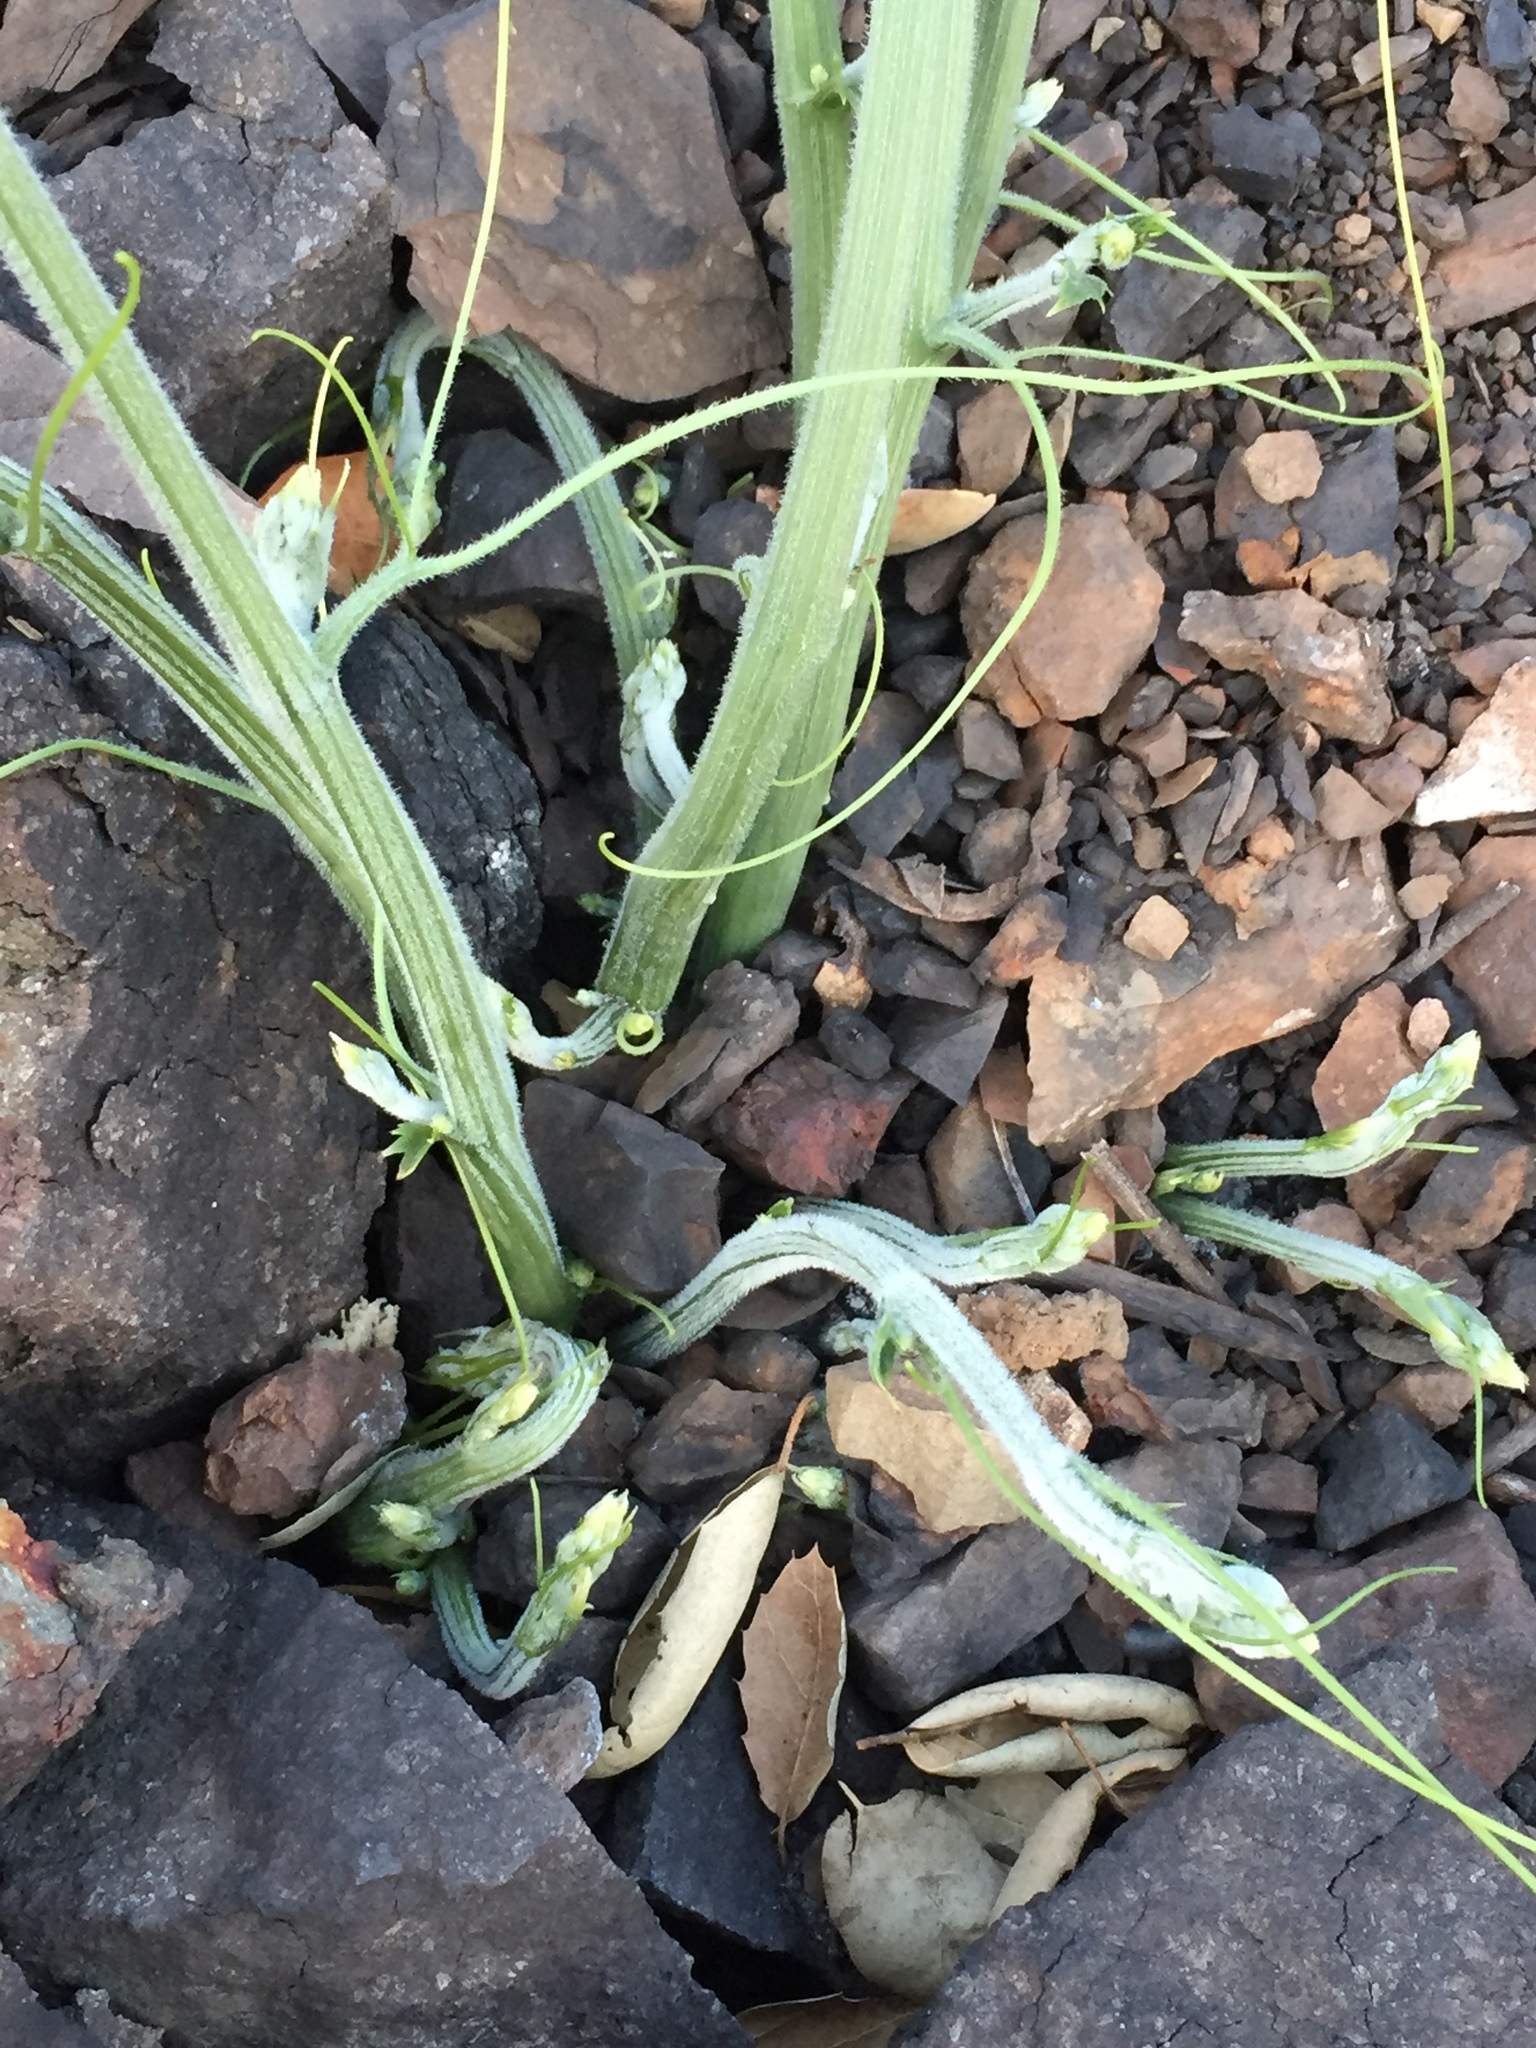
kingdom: Plantae
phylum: Tracheophyta
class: Magnoliopsida
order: Cucurbitales
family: Cucurbitaceae
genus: Marah
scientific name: Marah macrocarpa
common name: Cucamonga manroot
